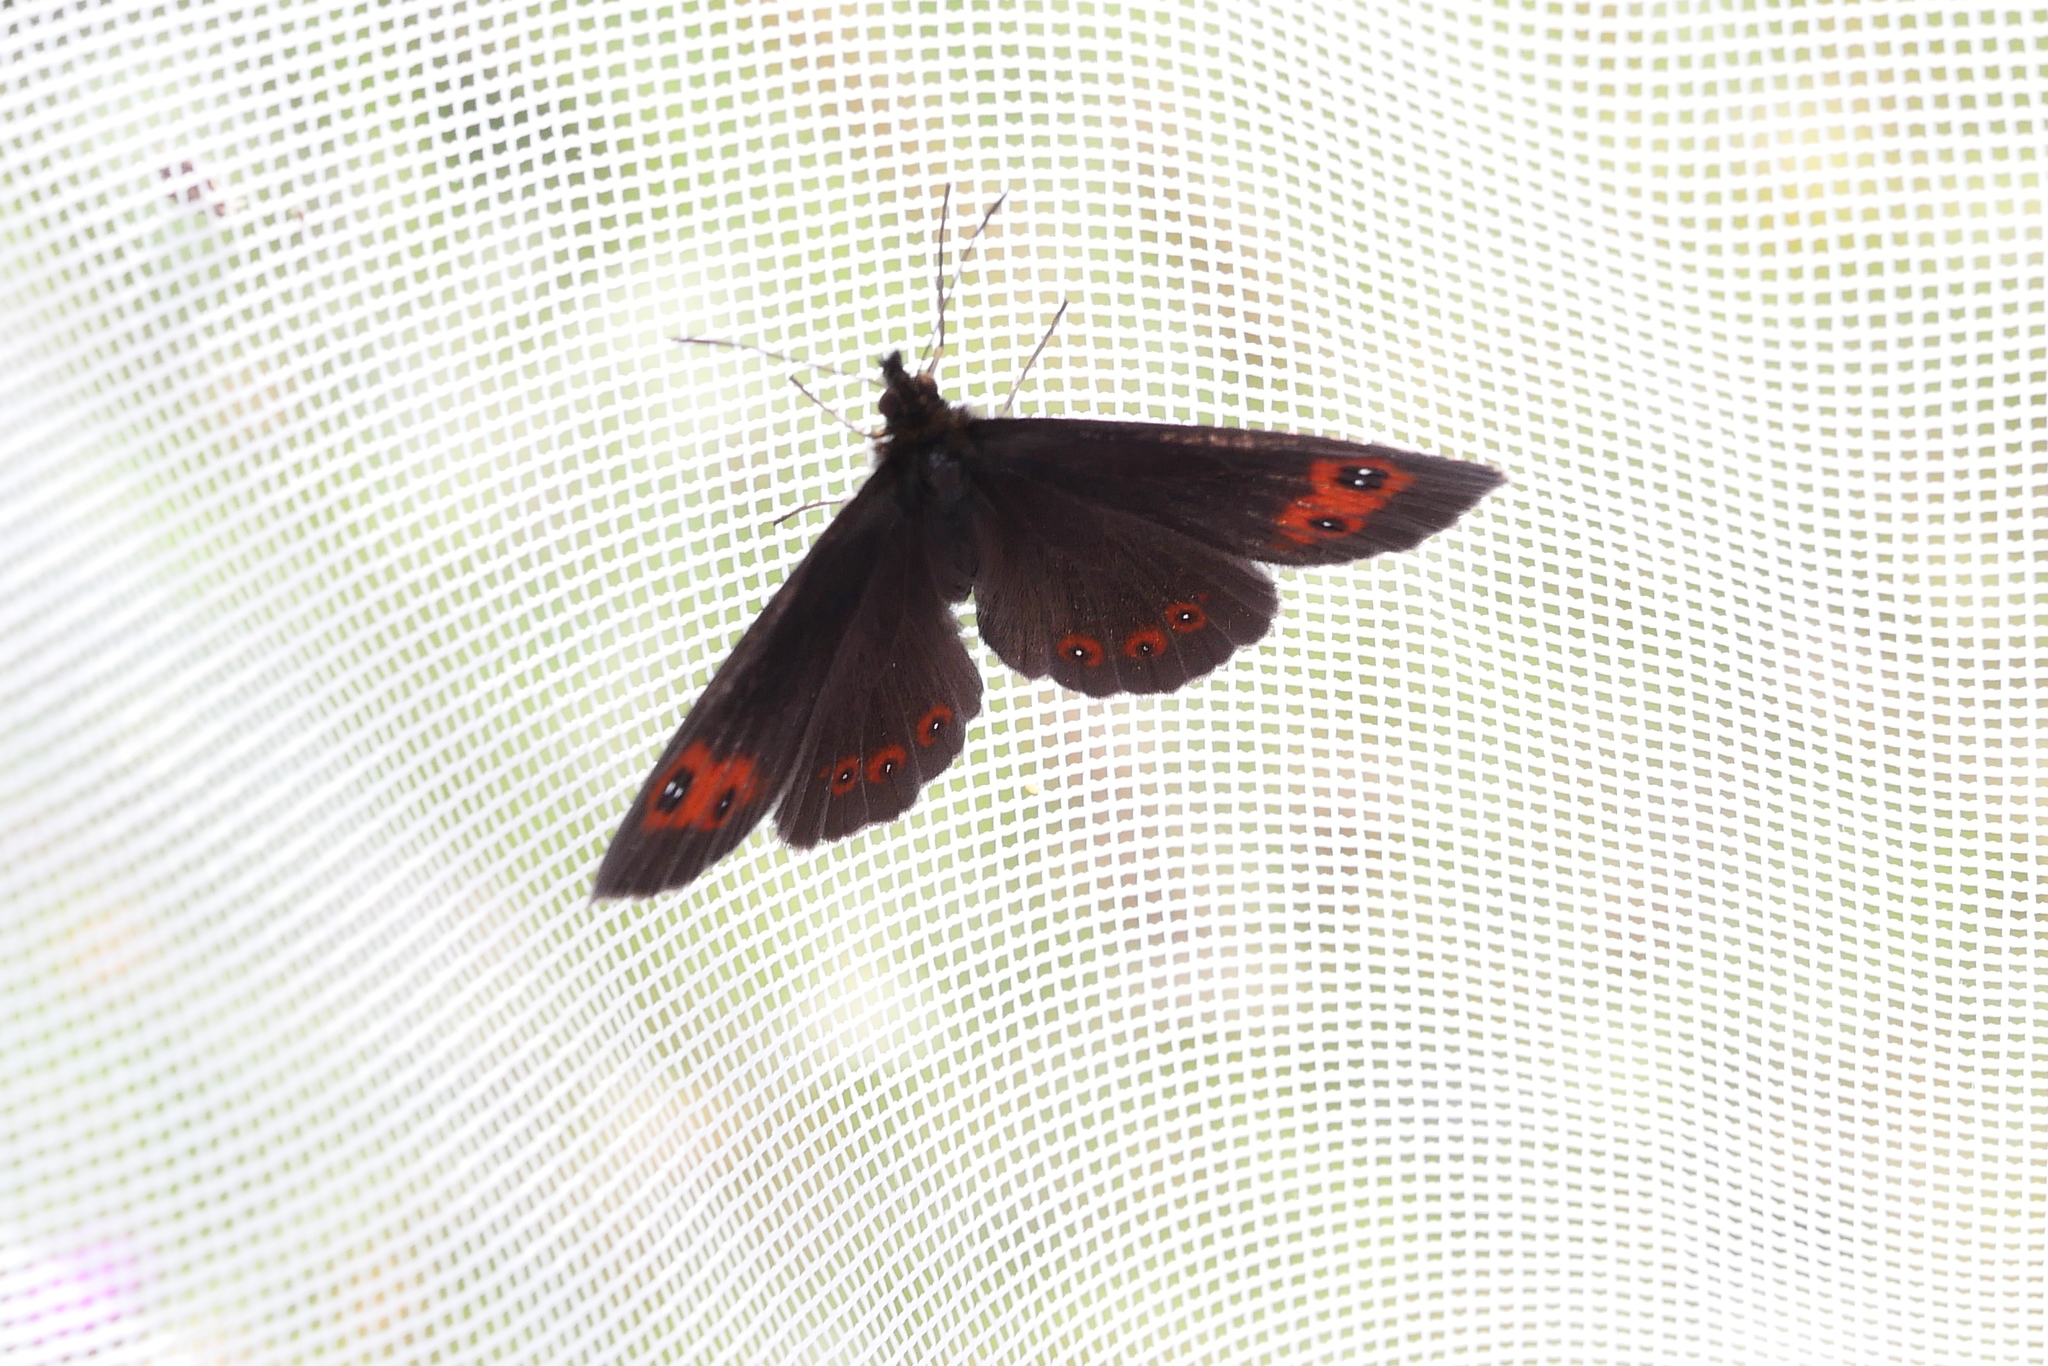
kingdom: Animalia
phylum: Arthropoda
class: Insecta
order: Lepidoptera
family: Nymphalidae
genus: Erebia
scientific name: Erebia aethiops
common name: Scotch argus
